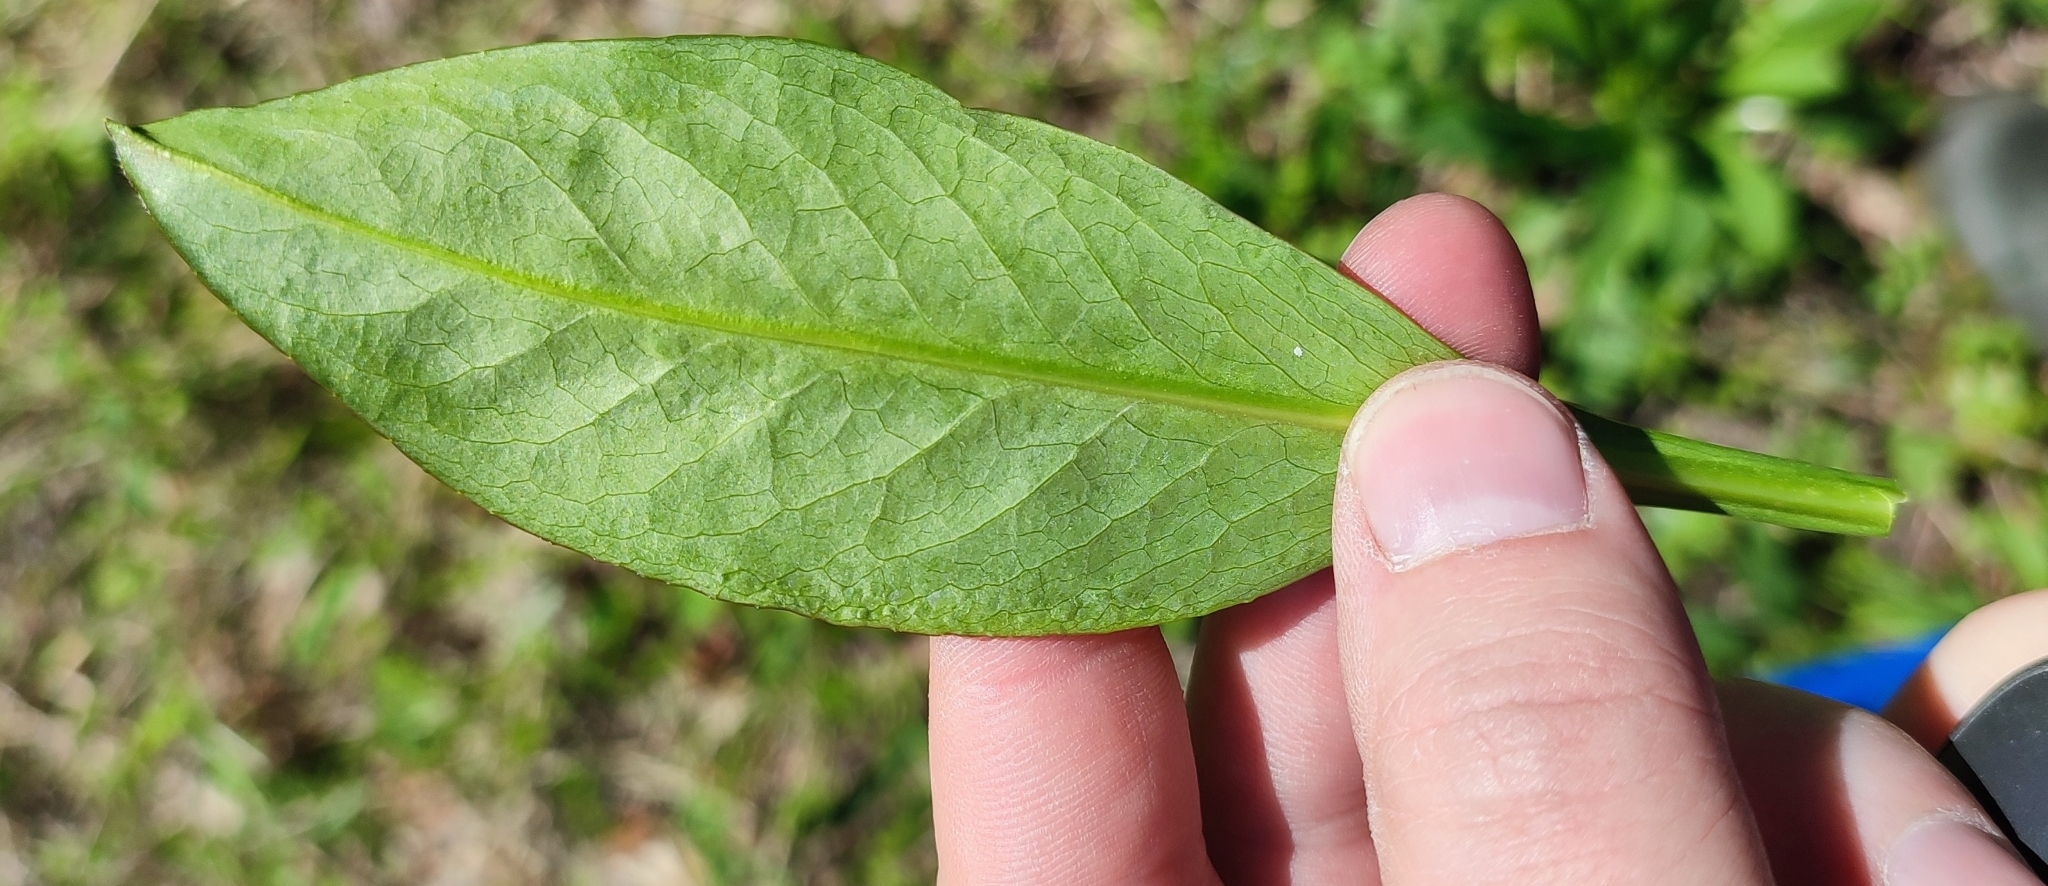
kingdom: Plantae
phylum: Tracheophyta
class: Magnoliopsida
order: Dipsacales
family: Caprifoliaceae
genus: Succisa
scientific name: Succisa pratensis
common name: Devil's-bit
